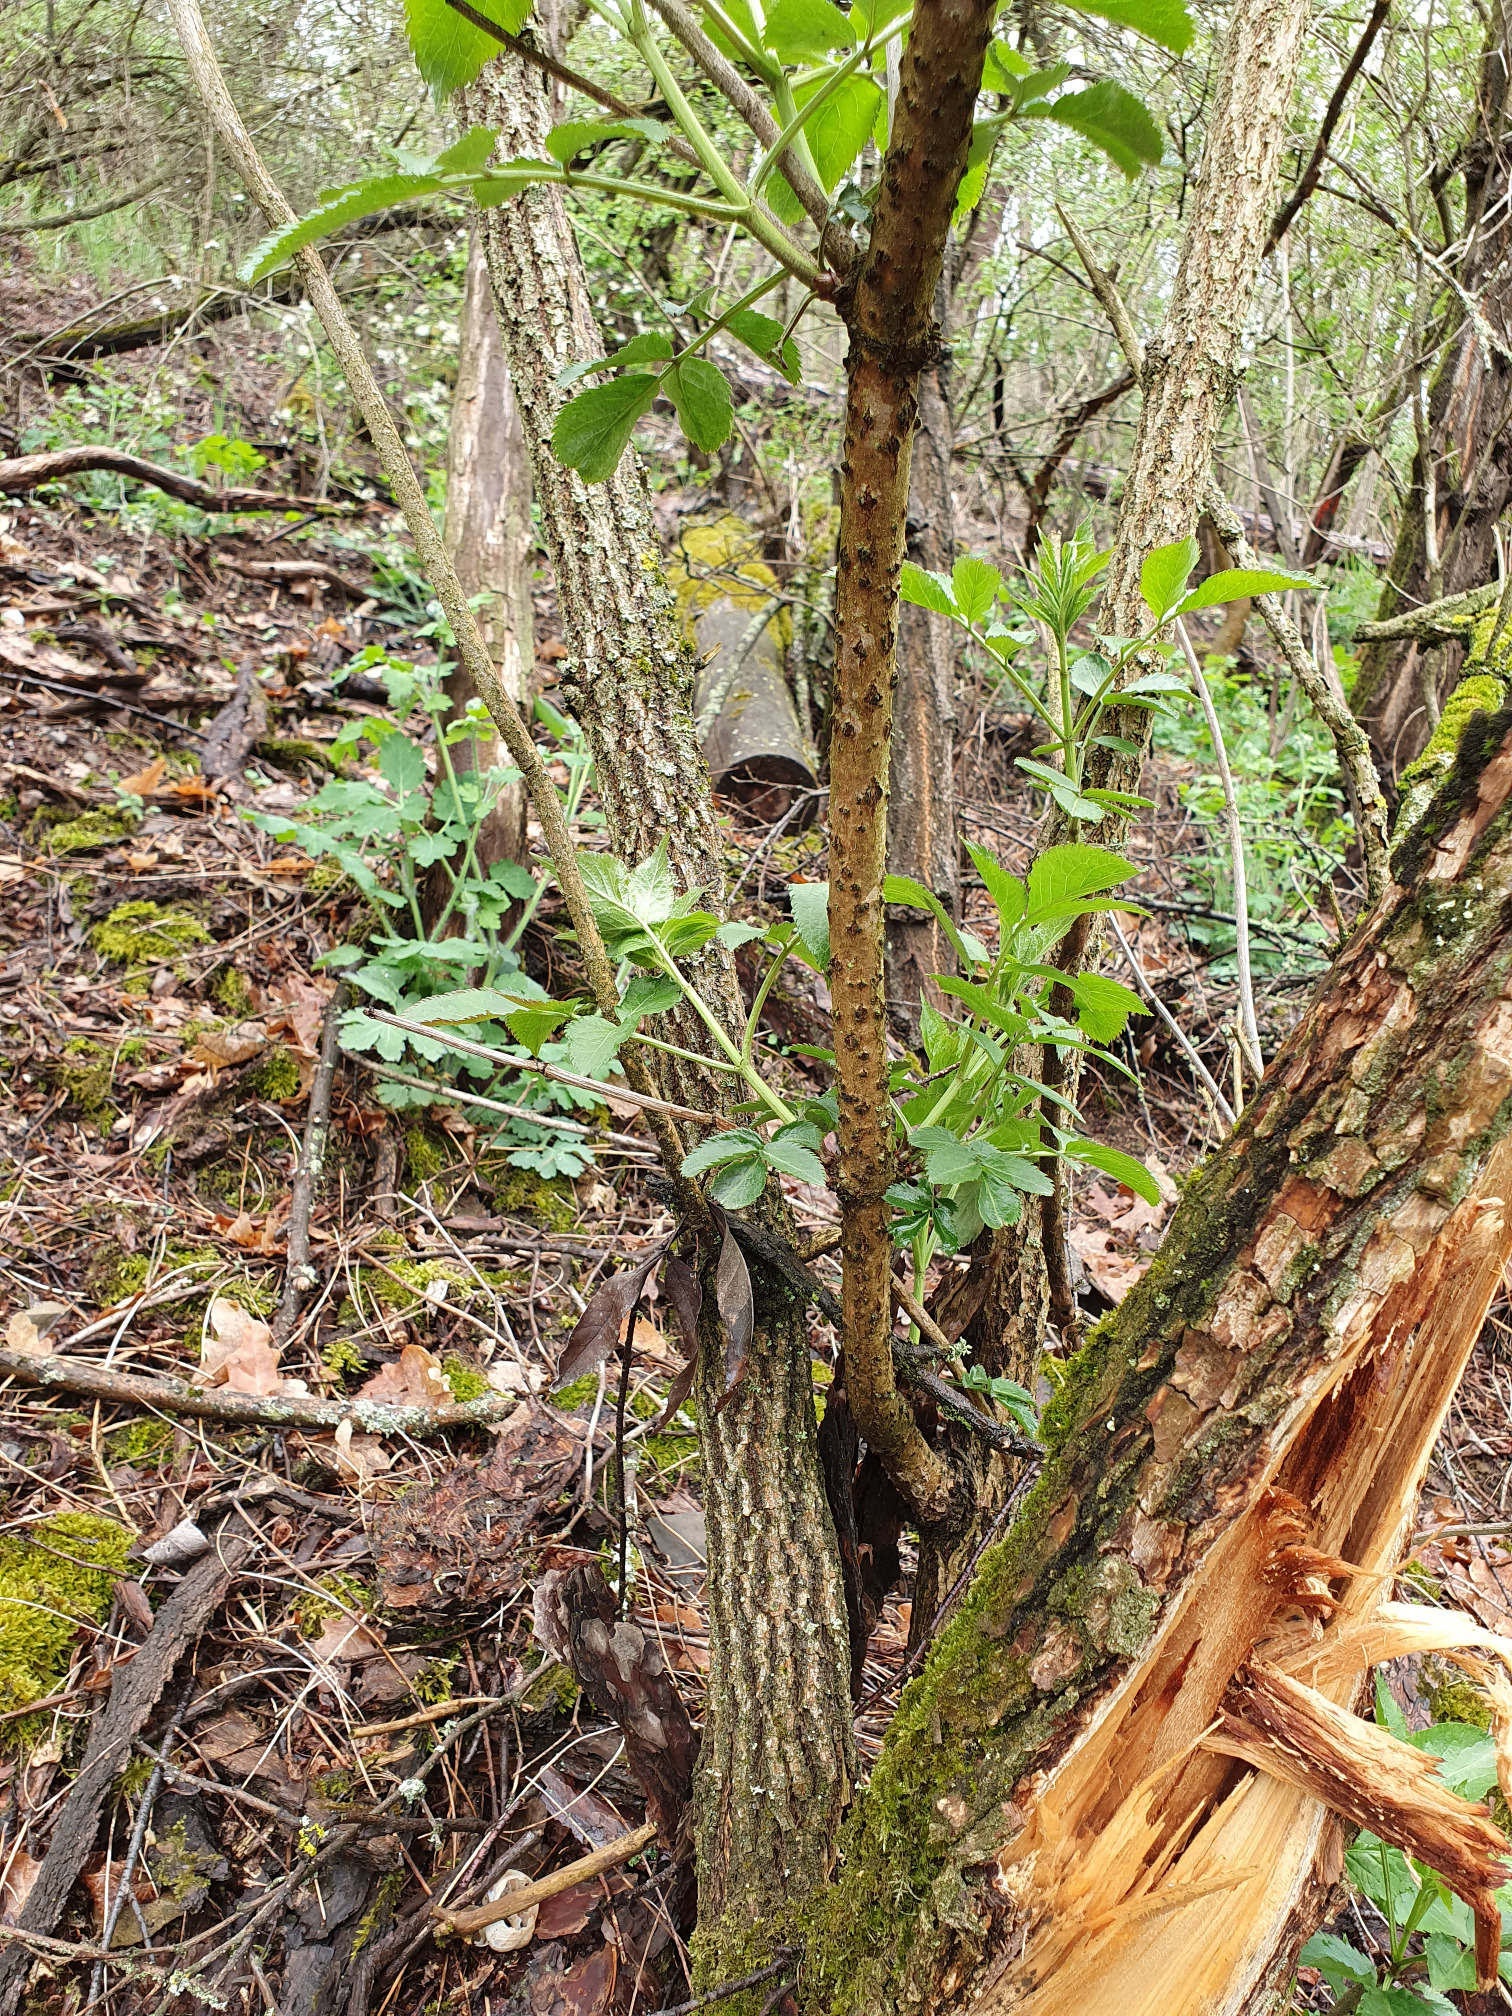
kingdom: Plantae
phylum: Tracheophyta
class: Magnoliopsida
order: Dipsacales
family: Viburnaceae
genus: Sambucus
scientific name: Sambucus nigra
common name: Elder
